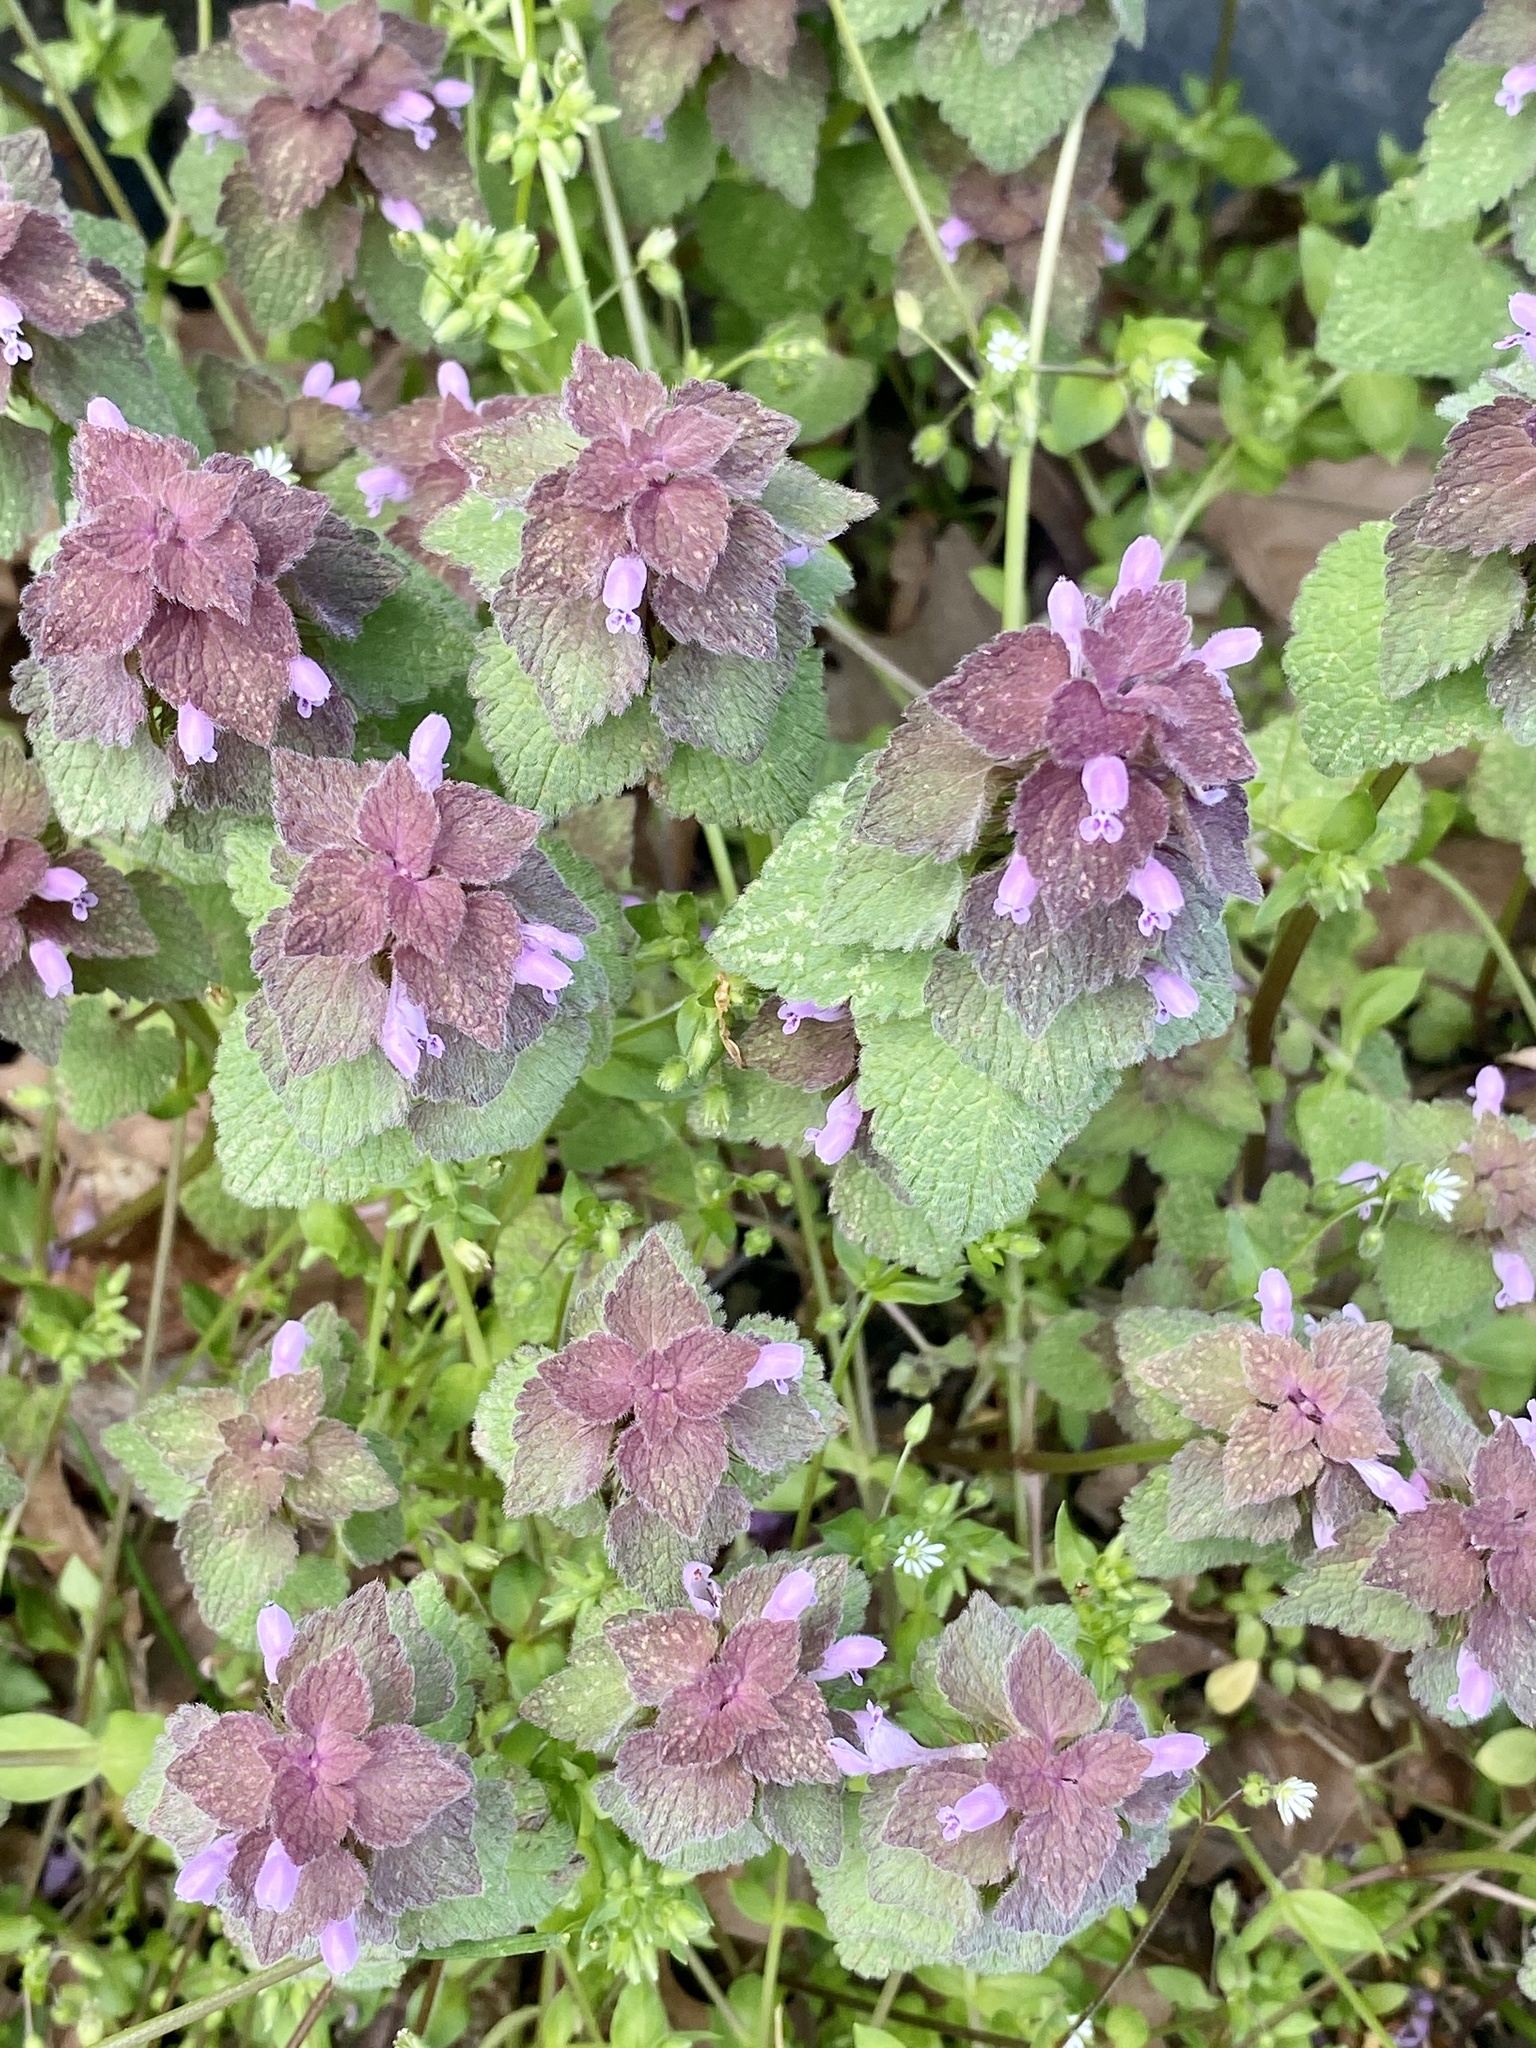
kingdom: Plantae
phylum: Tracheophyta
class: Magnoliopsida
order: Lamiales
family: Lamiaceae
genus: Lamium
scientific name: Lamium purpureum
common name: Red dead-nettle
